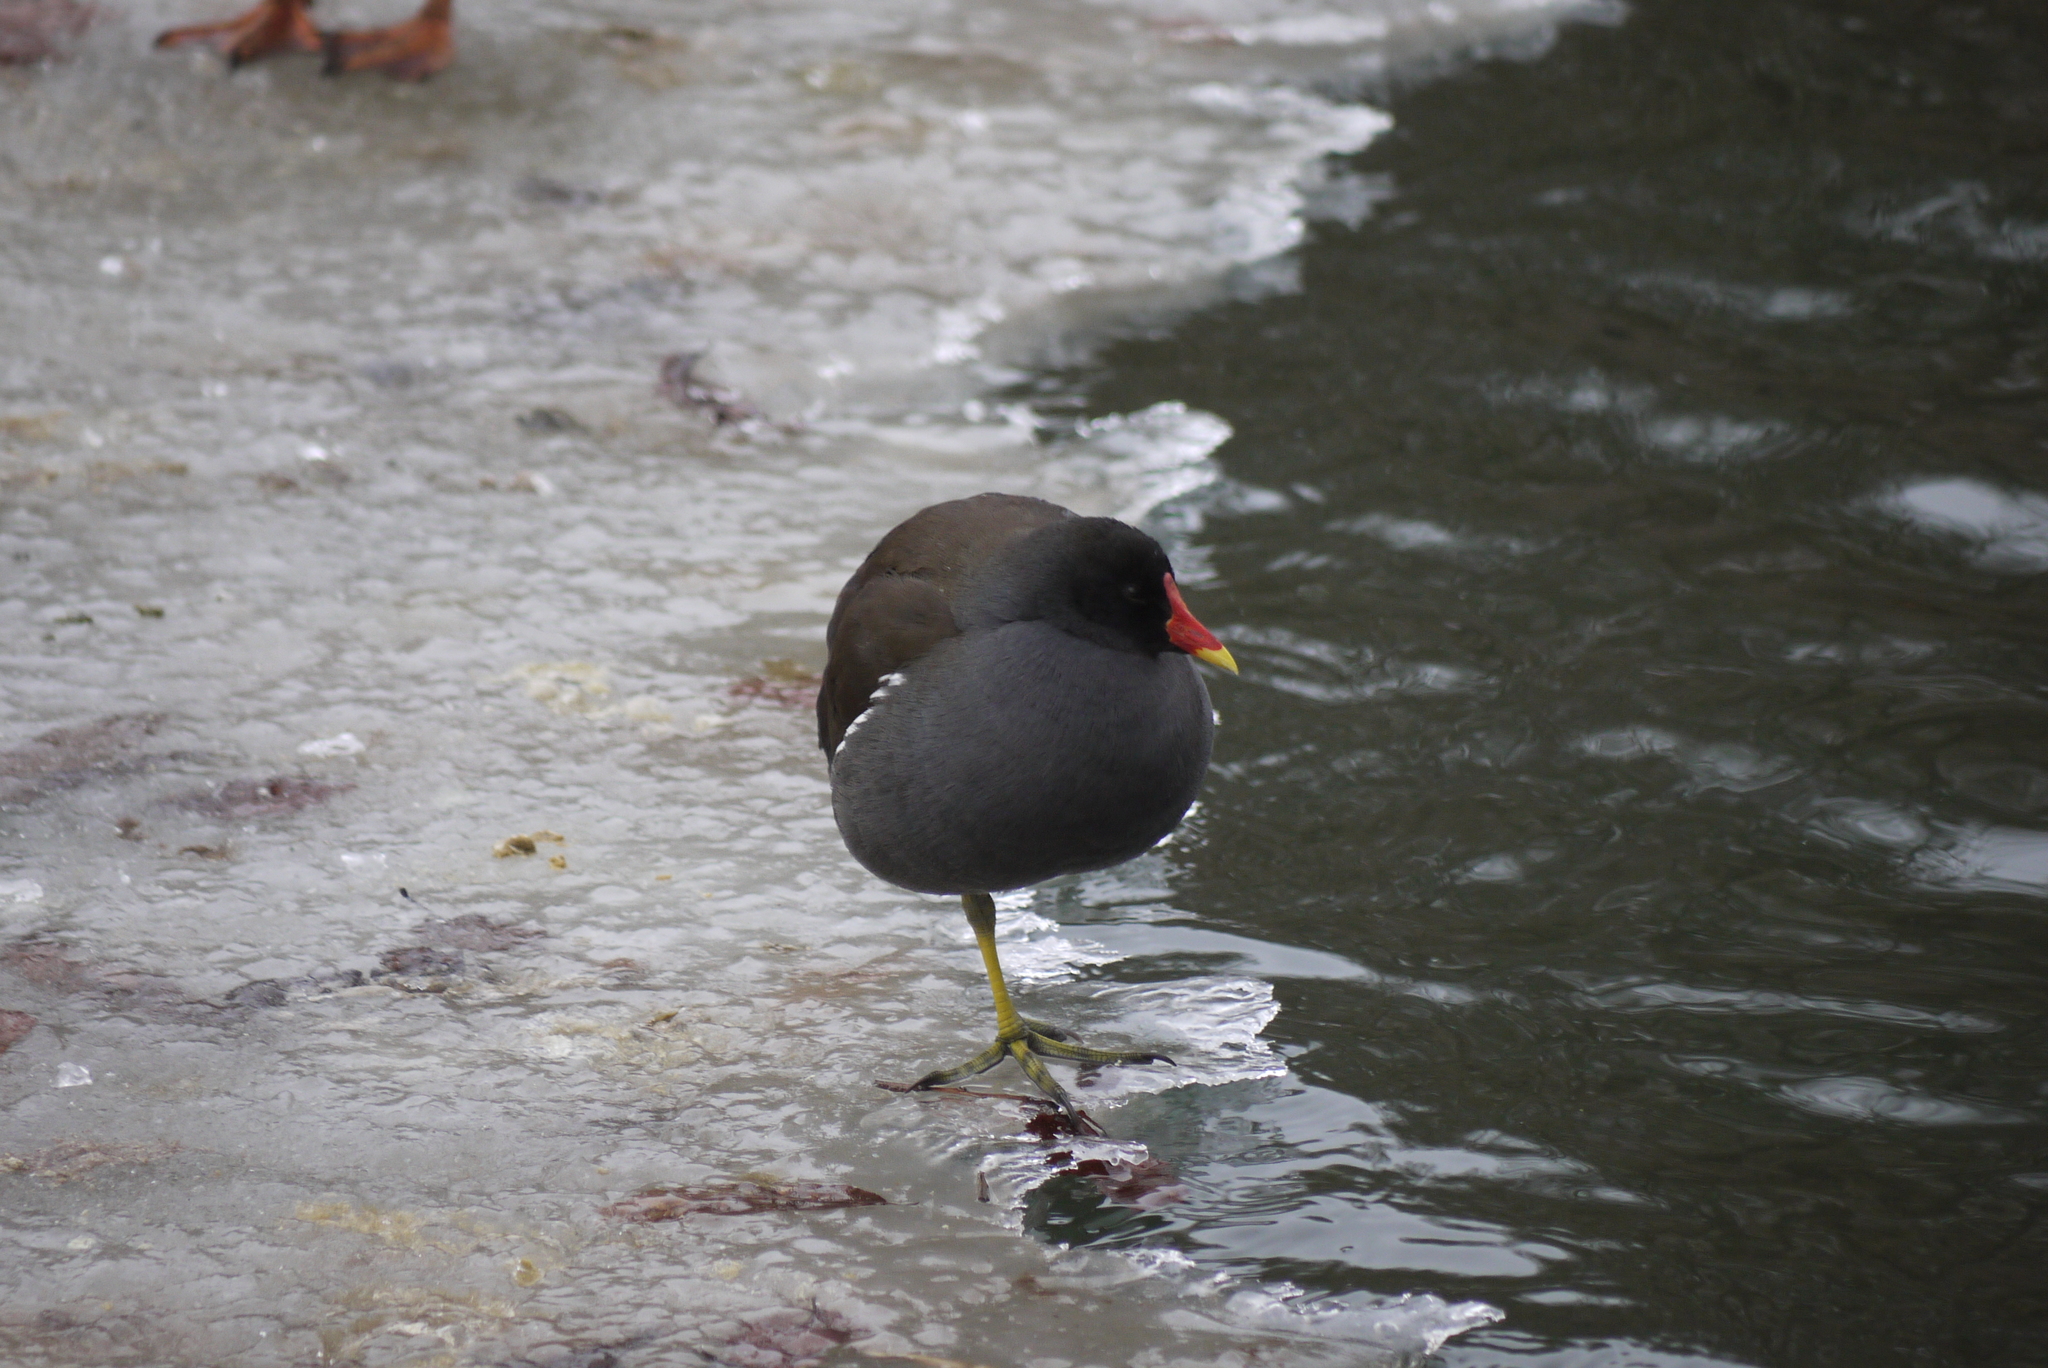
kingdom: Animalia
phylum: Chordata
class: Aves
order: Gruiformes
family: Rallidae
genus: Gallinula
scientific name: Gallinula chloropus
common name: Common moorhen
